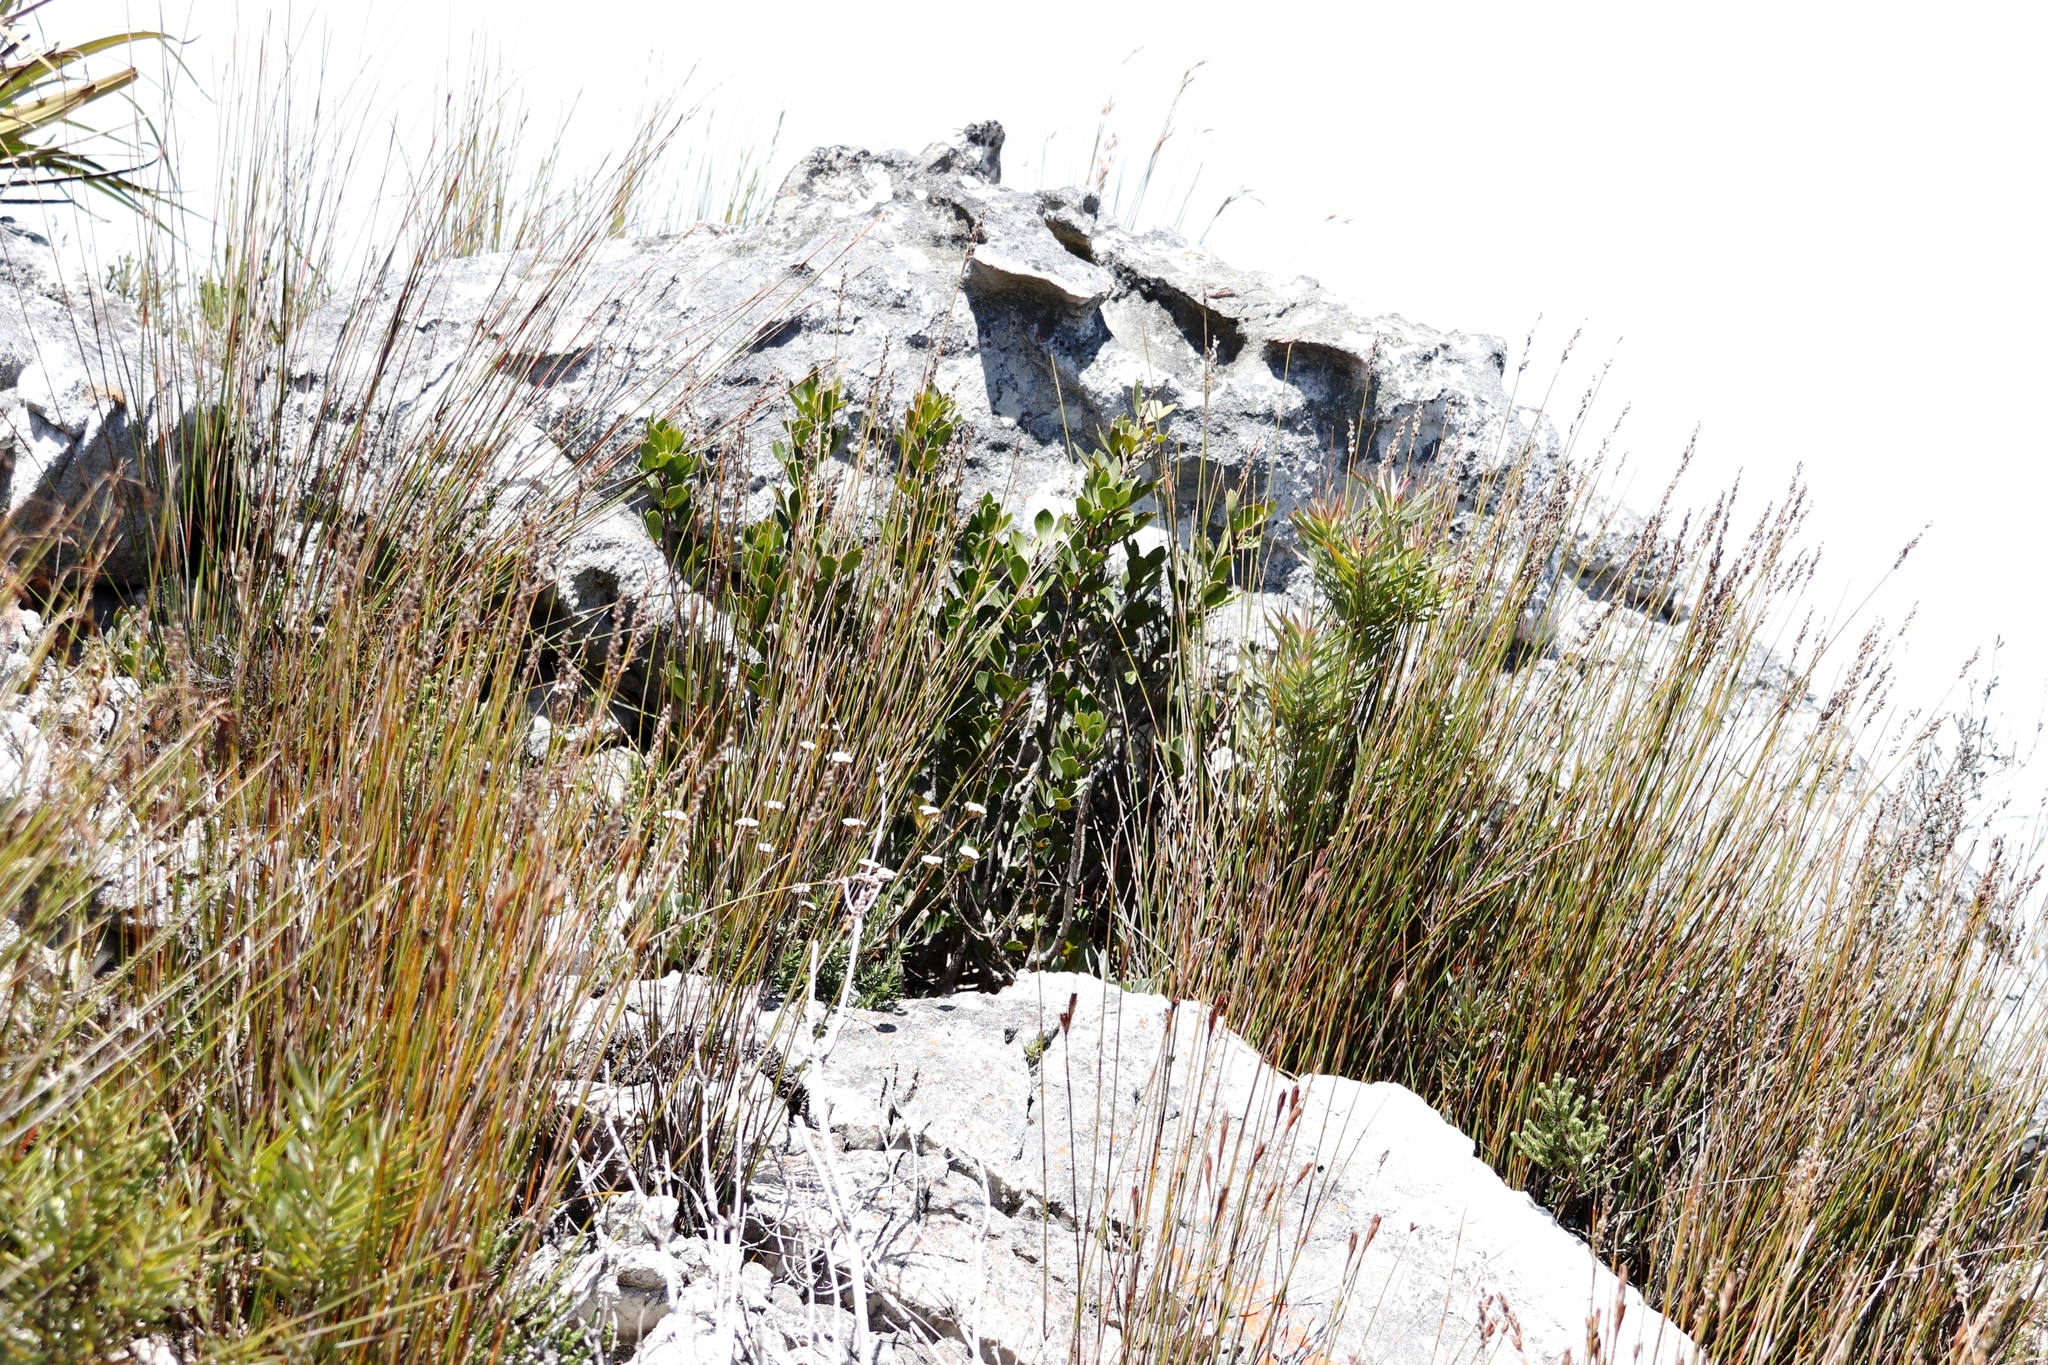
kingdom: Plantae
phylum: Tracheophyta
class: Magnoliopsida
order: Sapindales
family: Anacardiaceae
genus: Searsia
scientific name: Searsia scytophylla
